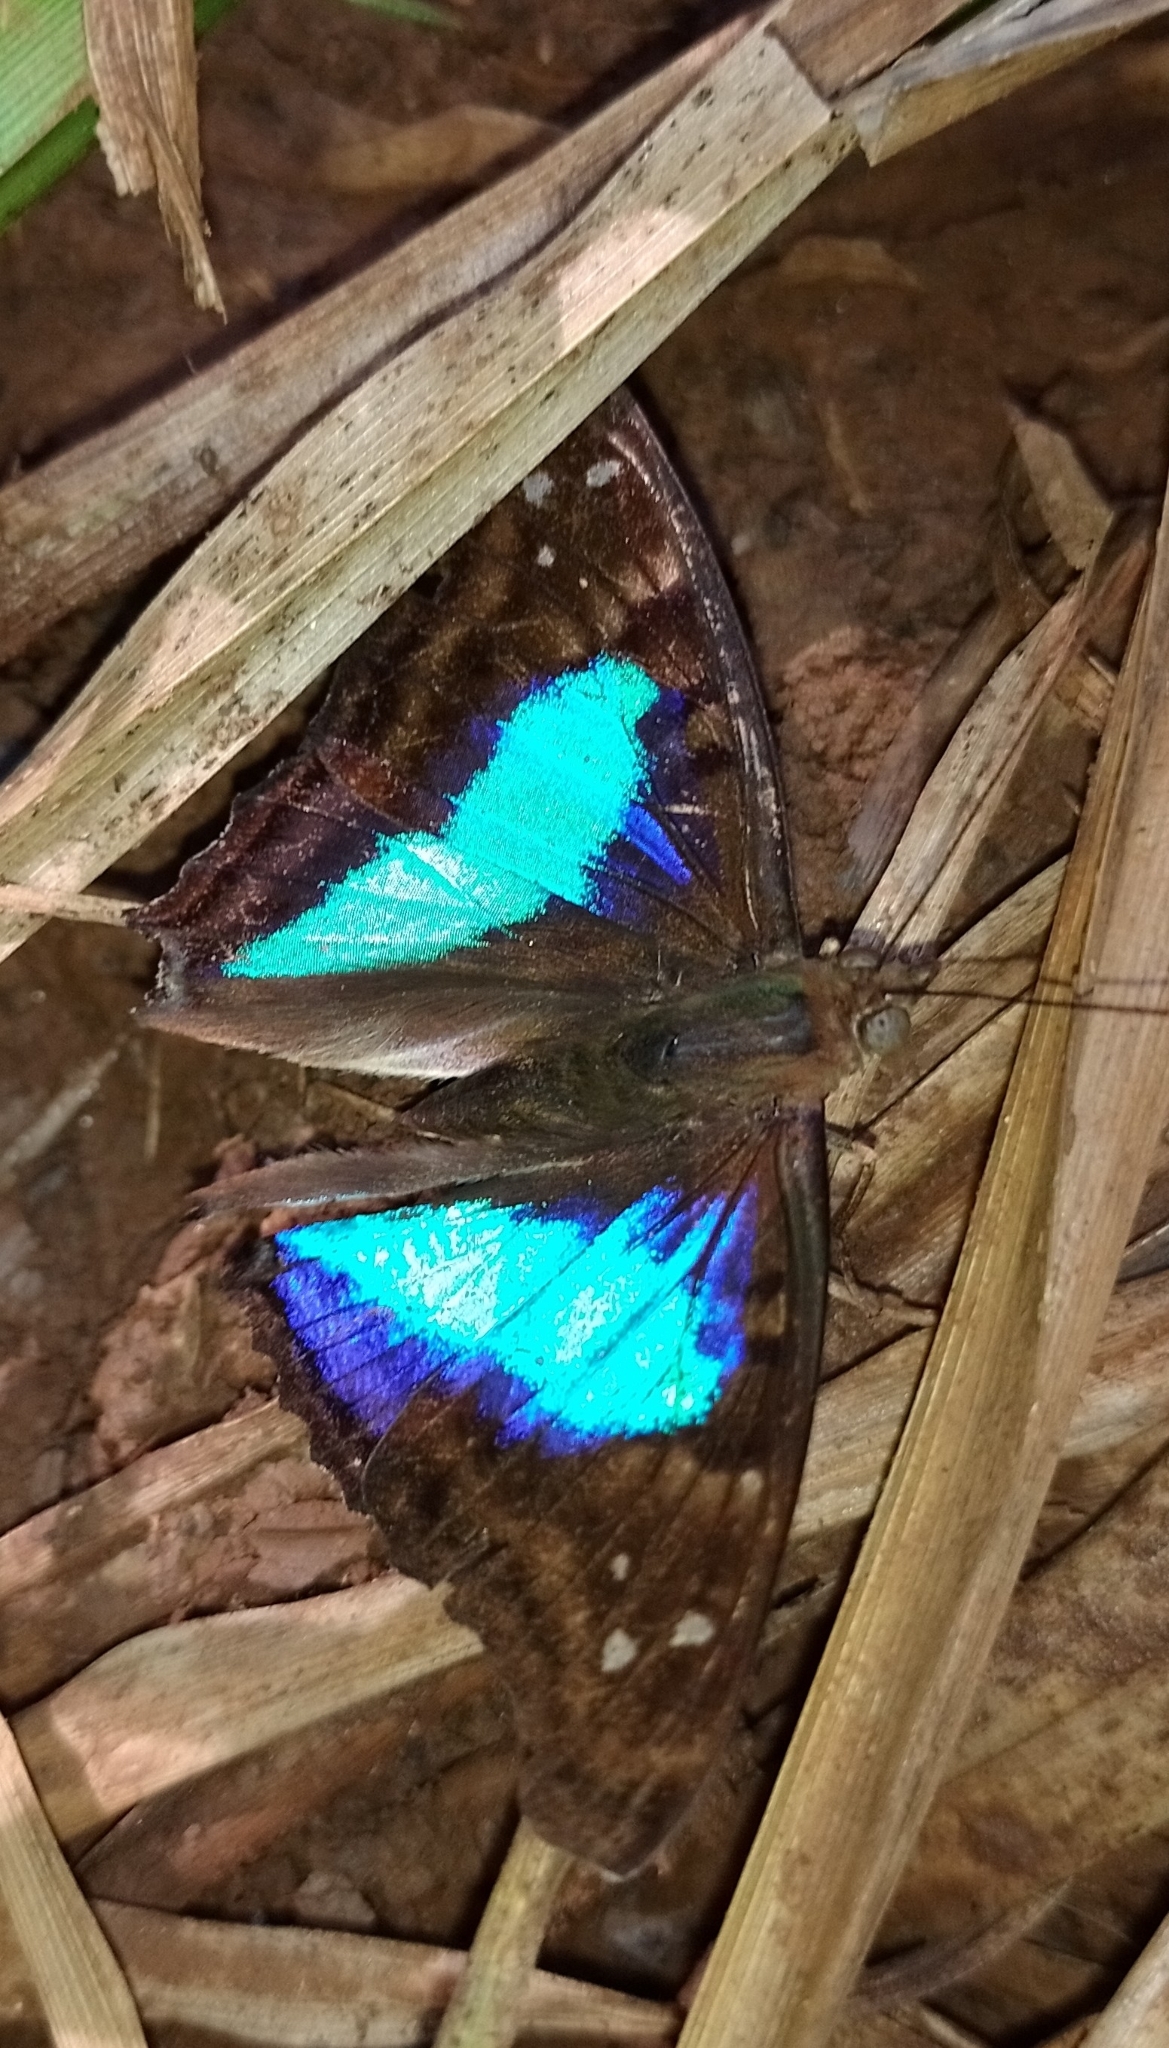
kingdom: Animalia
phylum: Arthropoda
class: Insecta
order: Lepidoptera
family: Nymphalidae
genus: Doxocopa
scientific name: Doxocopa laurentia
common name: Turquoise emperor
